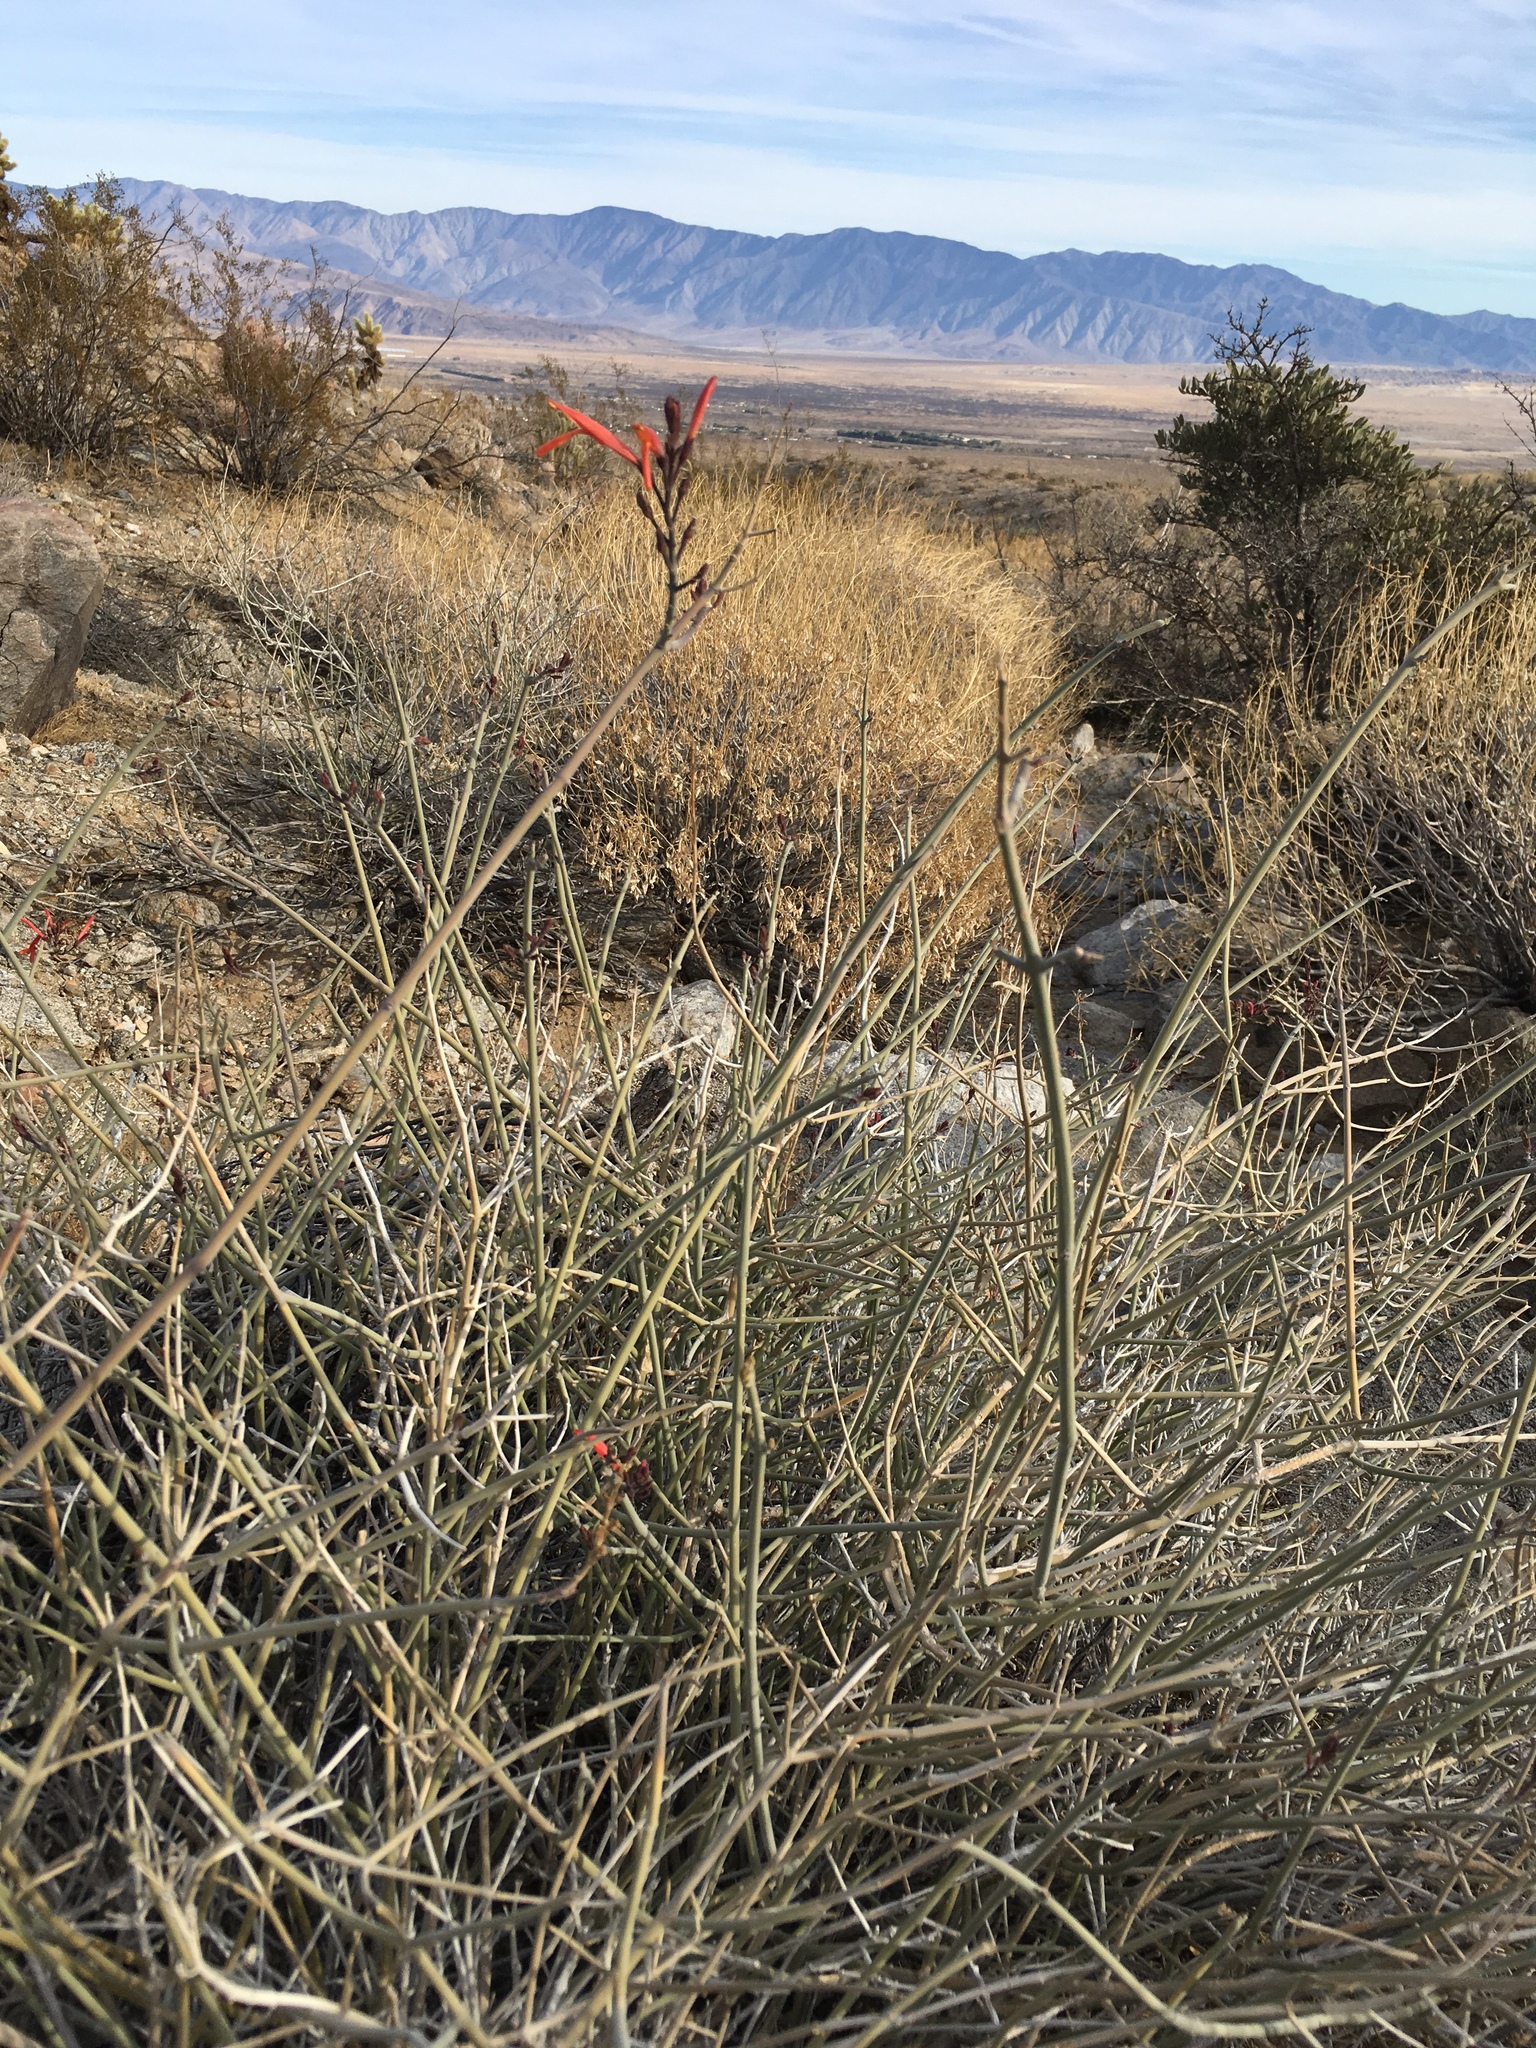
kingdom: Plantae
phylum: Tracheophyta
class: Magnoliopsida
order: Lamiales
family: Acanthaceae
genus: Justicia
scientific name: Justicia californica
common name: Chuparosa-honeysuckle
